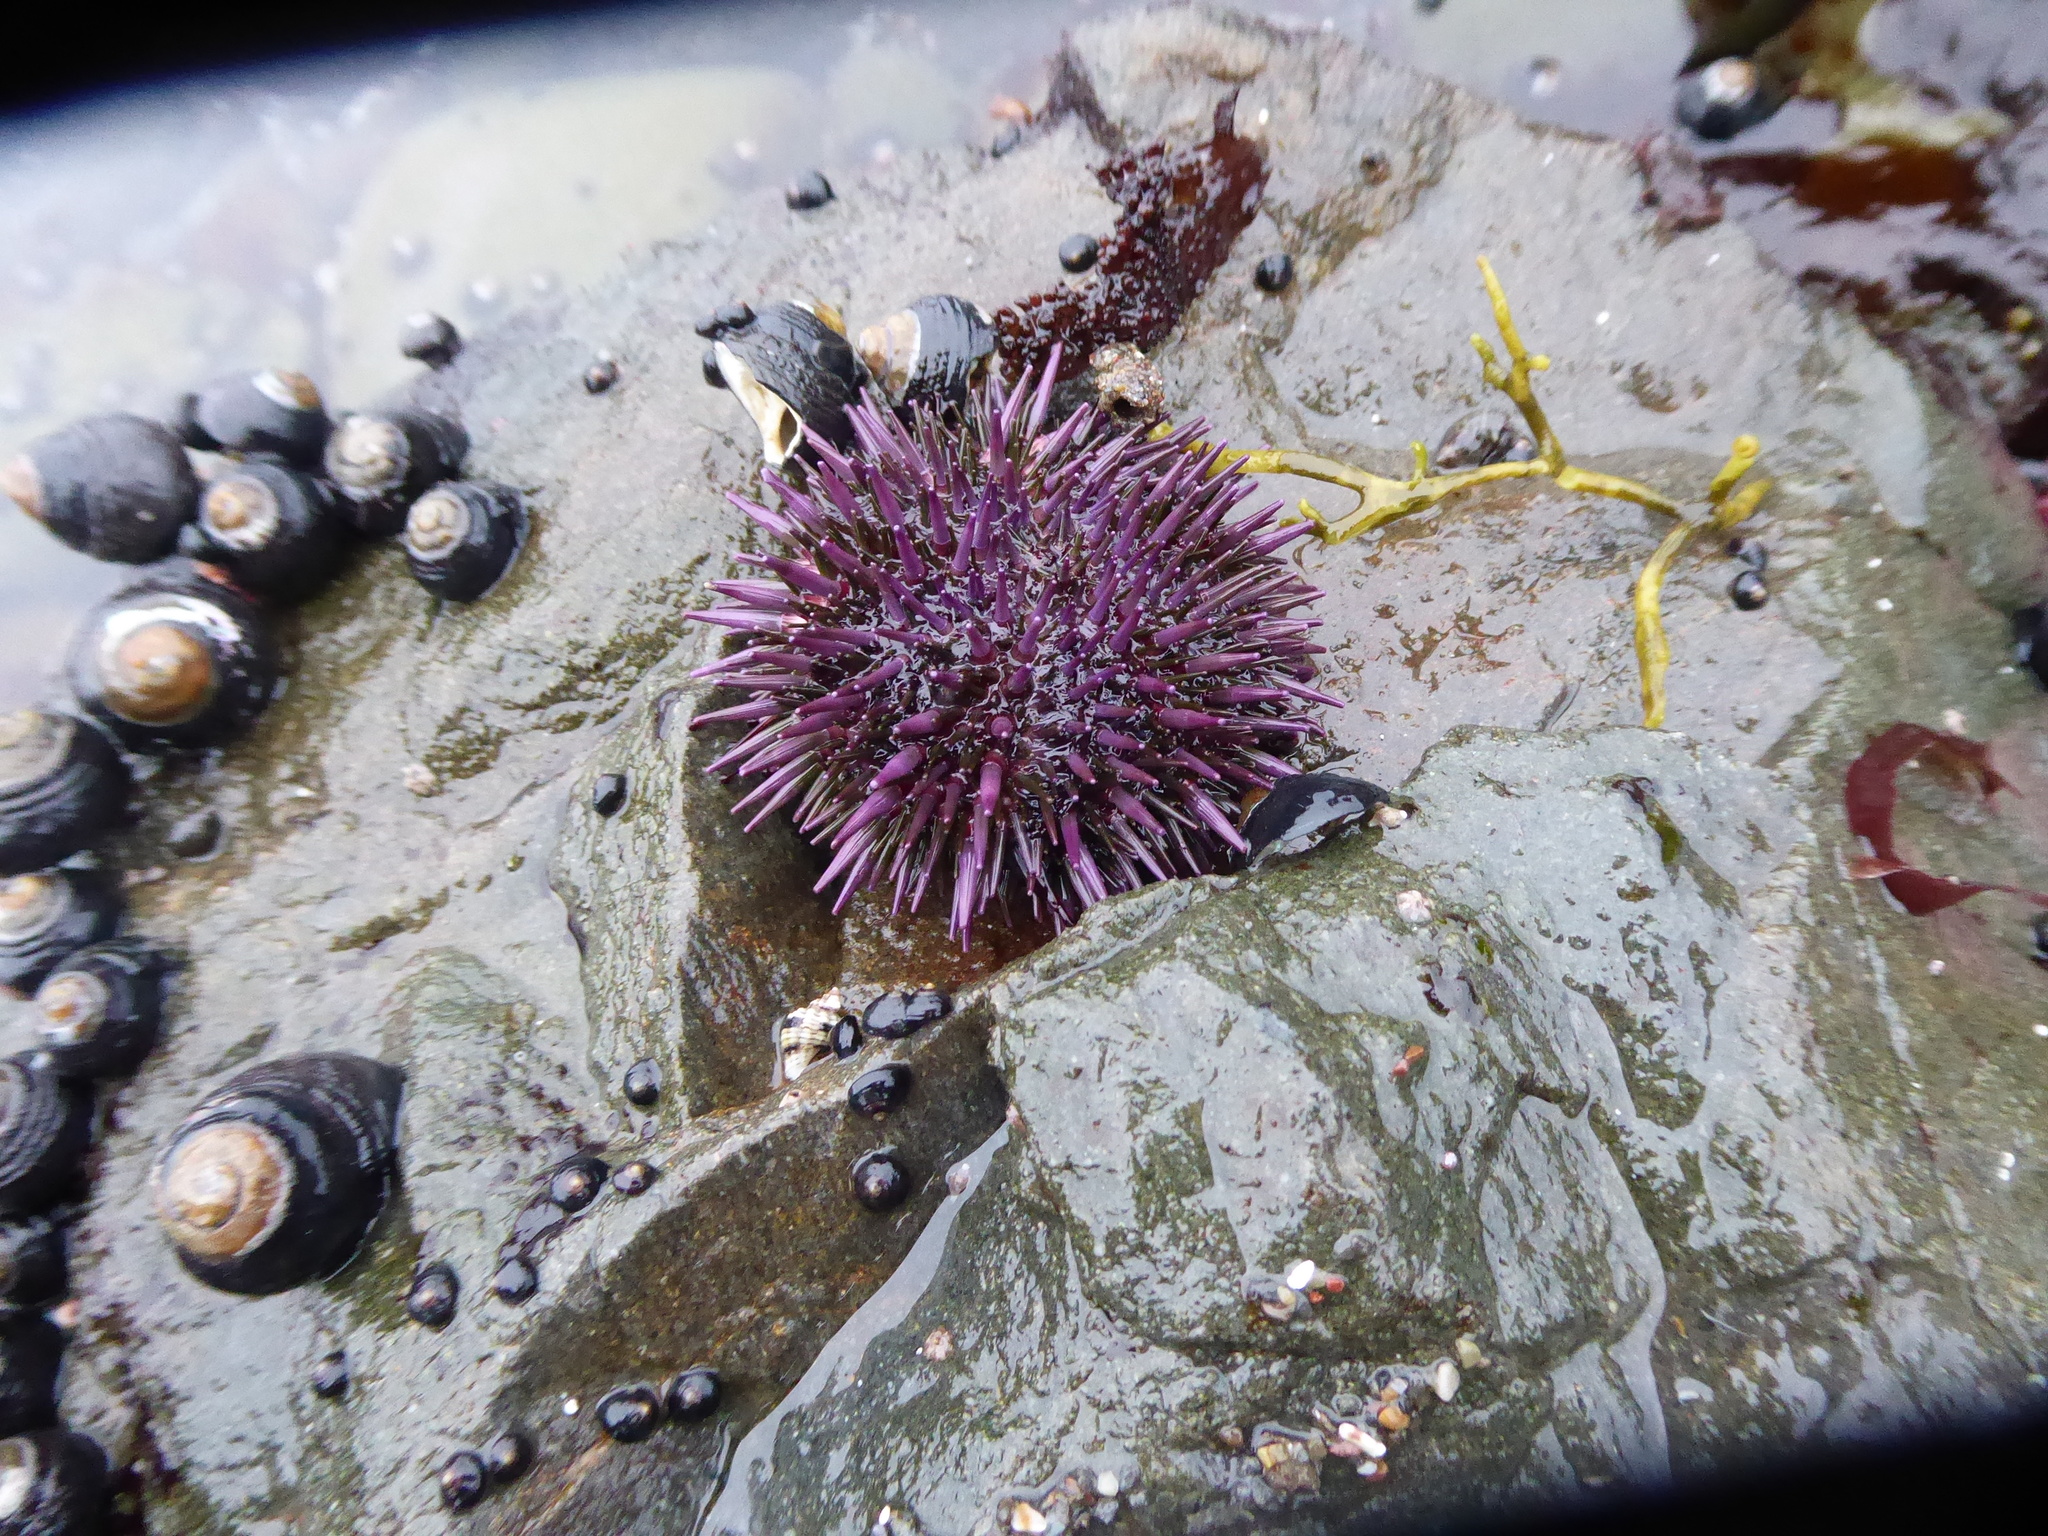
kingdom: Animalia
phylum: Echinodermata
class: Echinoidea
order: Camarodonta
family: Strongylocentrotidae
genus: Strongylocentrotus
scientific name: Strongylocentrotus purpuratus
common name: Purple sea urchin
